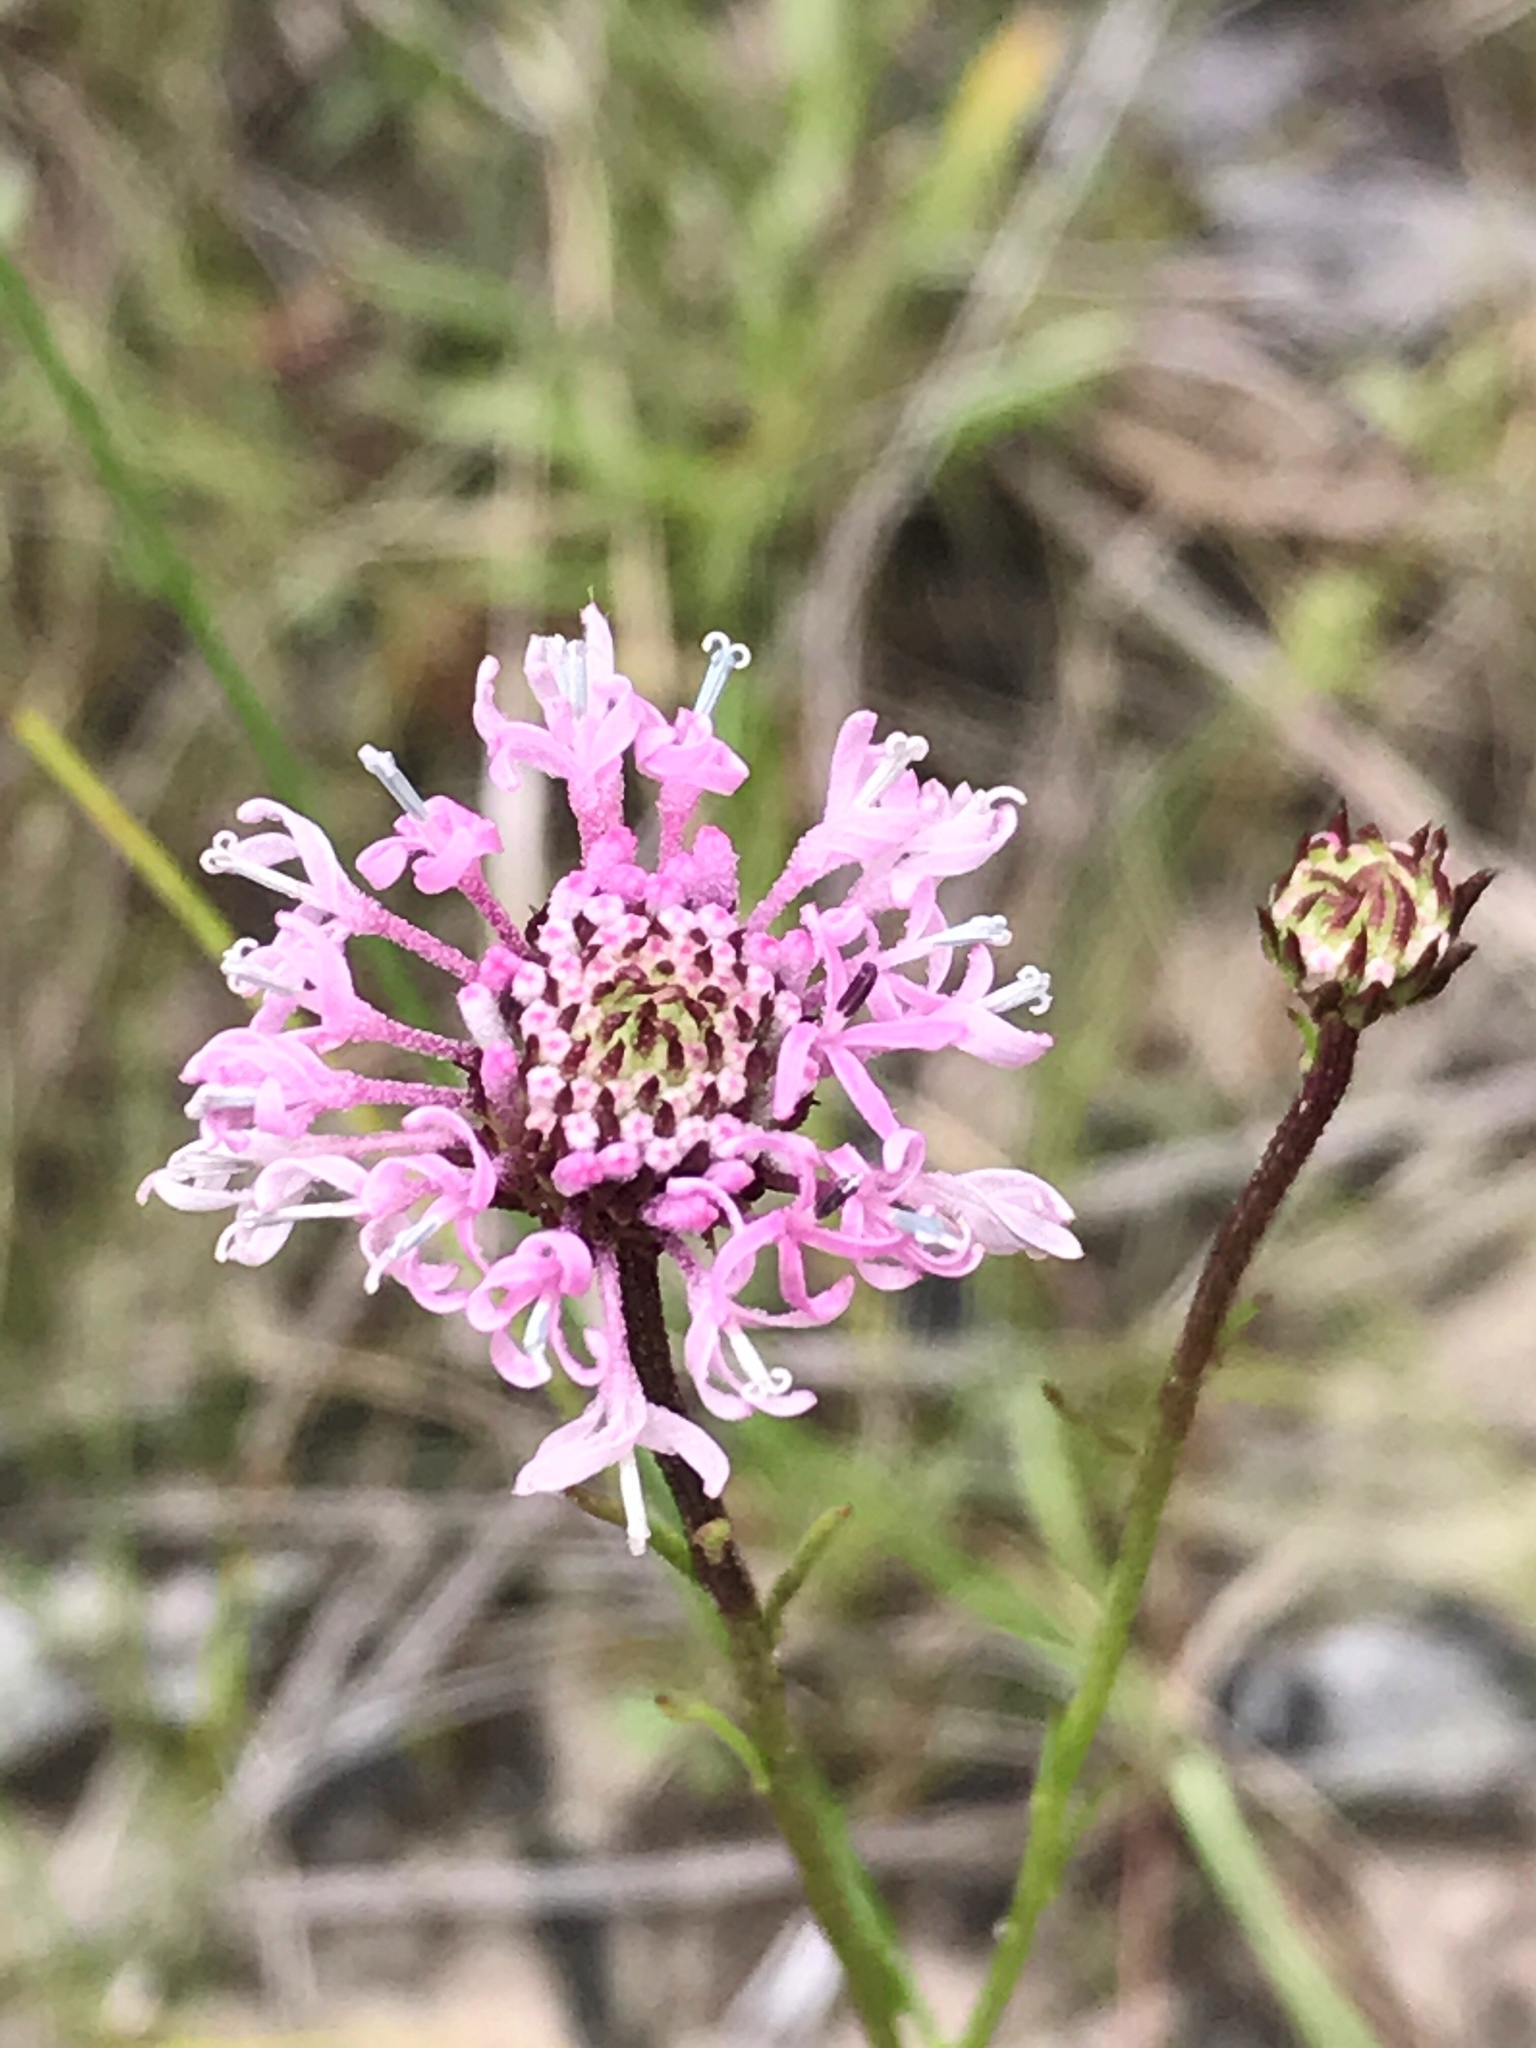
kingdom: Plantae
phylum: Tracheophyta
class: Magnoliopsida
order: Asterales
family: Asteraceae
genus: Marshallia
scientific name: Marshallia graminifolia
